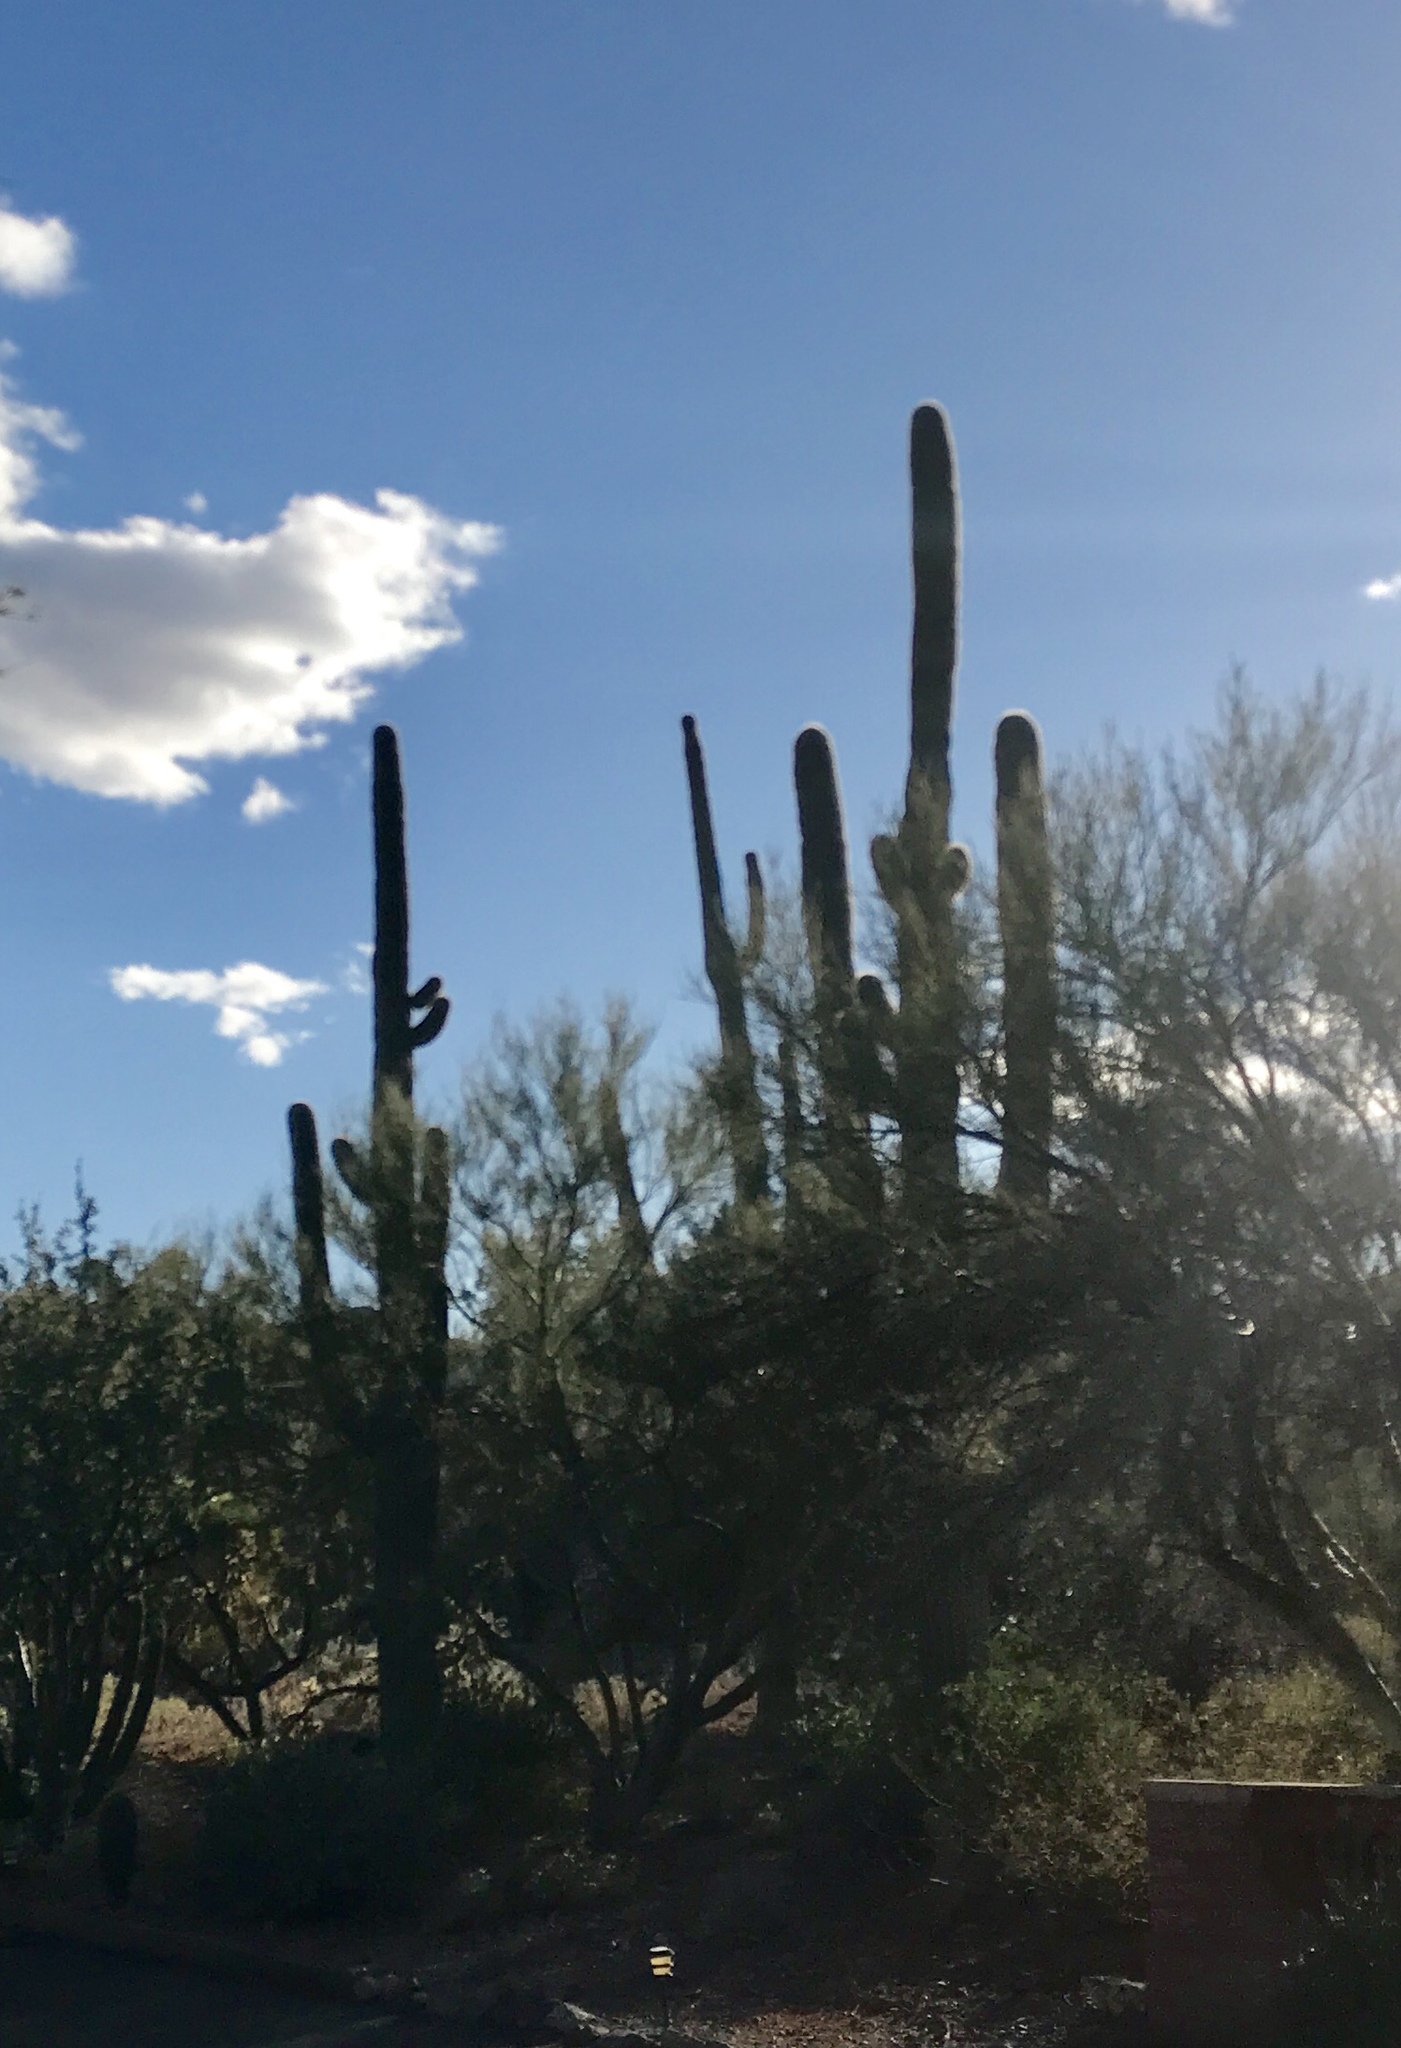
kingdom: Plantae
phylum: Tracheophyta
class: Magnoliopsida
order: Caryophyllales
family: Cactaceae
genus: Carnegiea
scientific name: Carnegiea gigantea
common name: Saguaro
